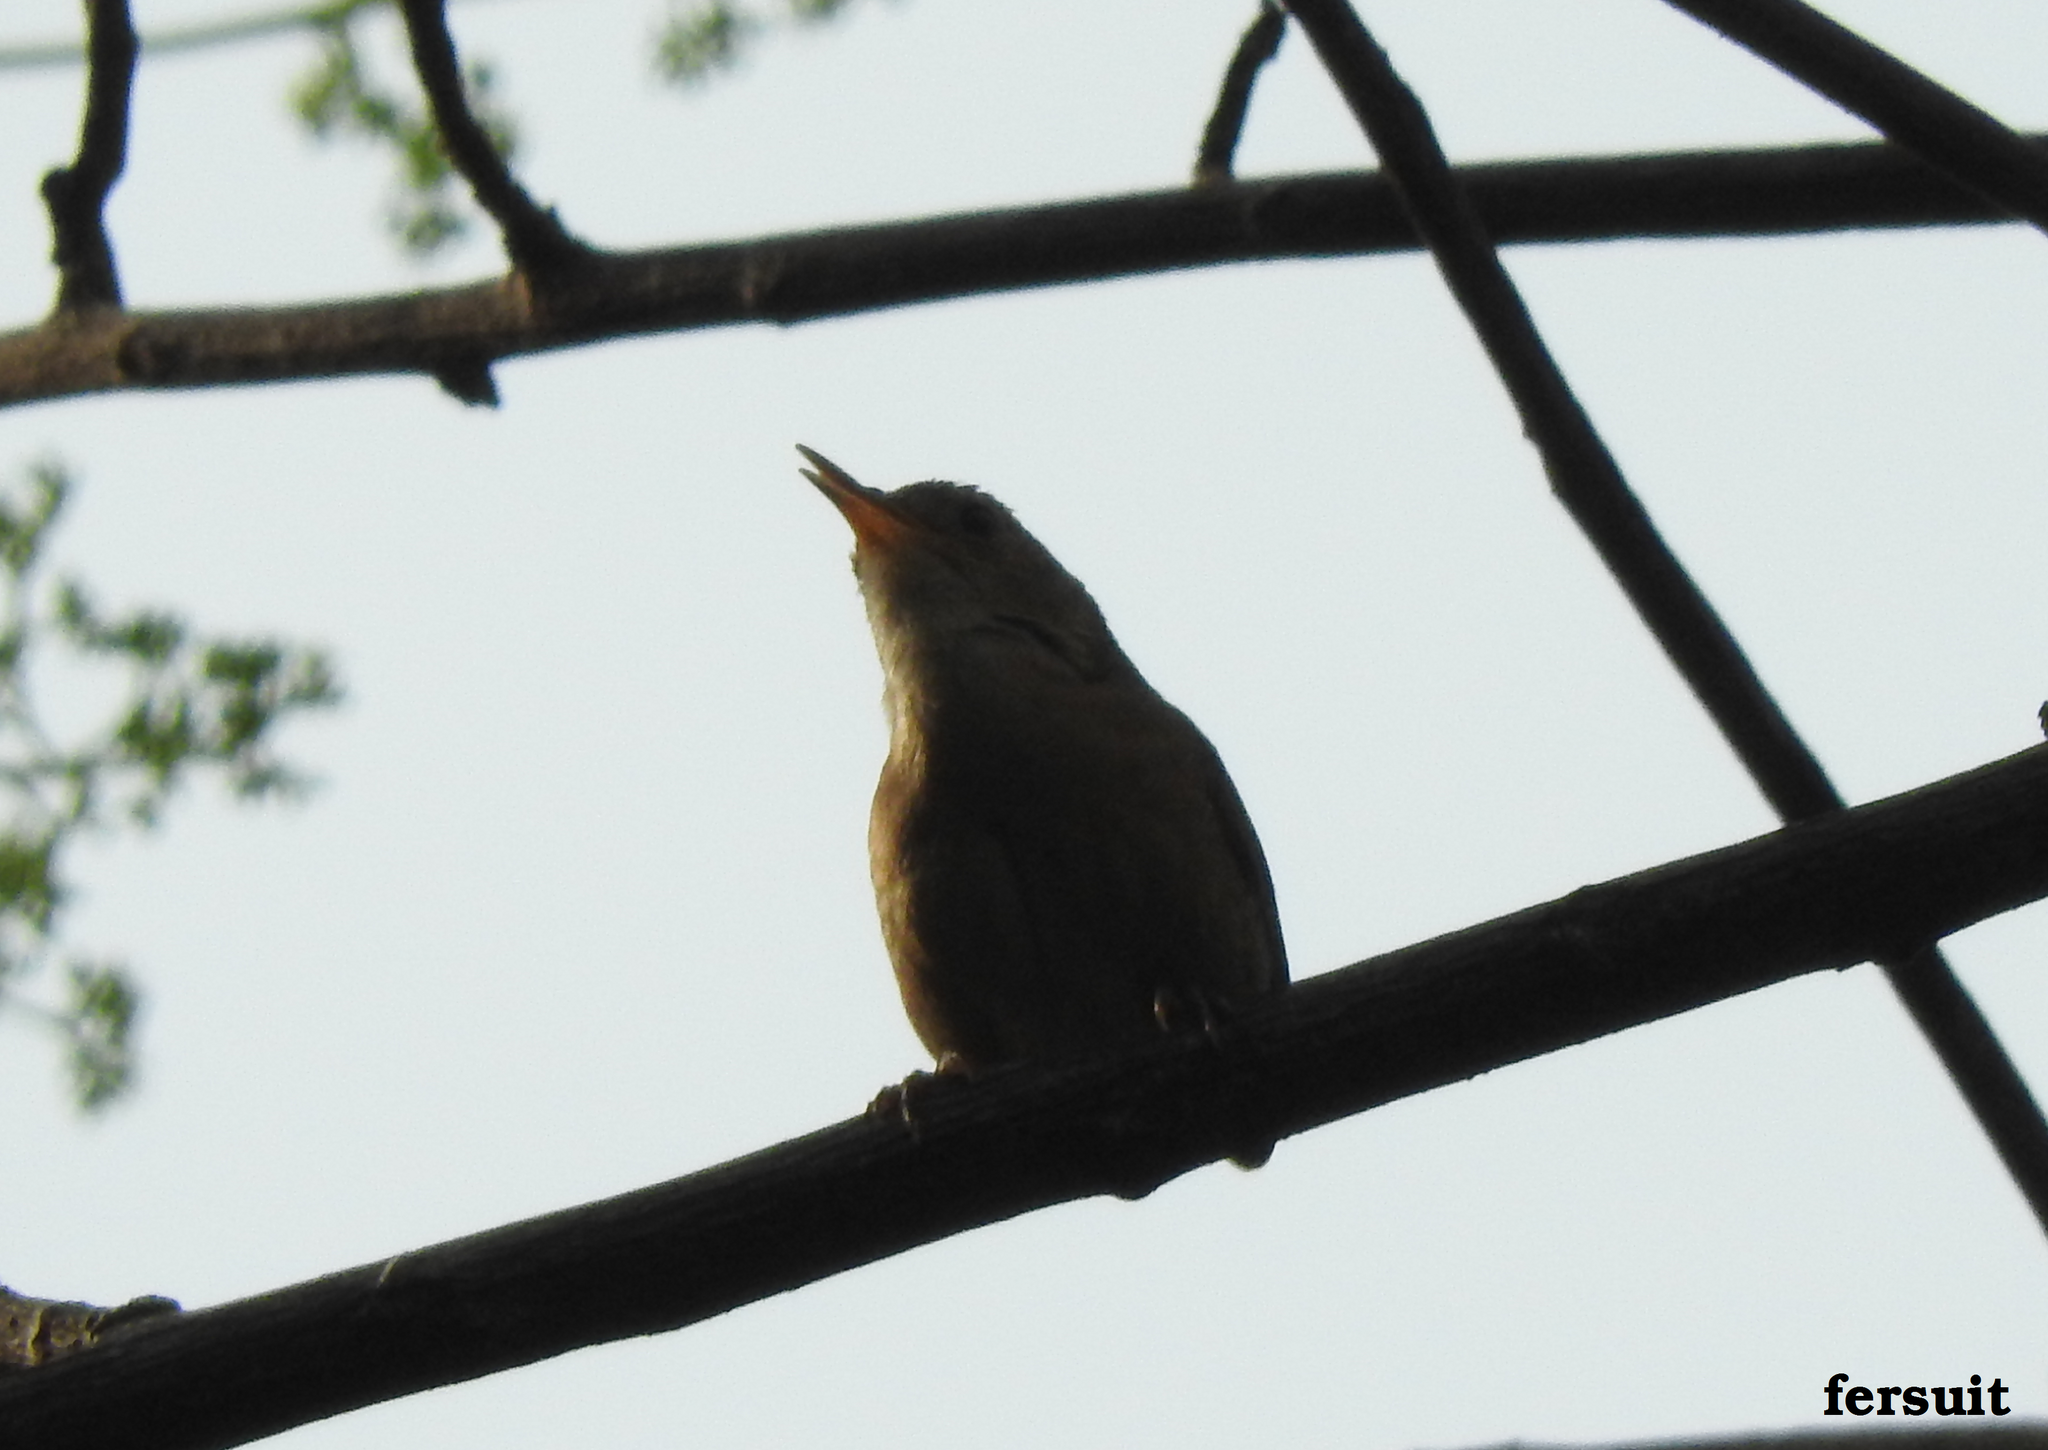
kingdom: Animalia
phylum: Chordata
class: Aves
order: Passeriformes
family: Troglodytidae
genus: Troglodytes
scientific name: Troglodytes aedon
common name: House wren
